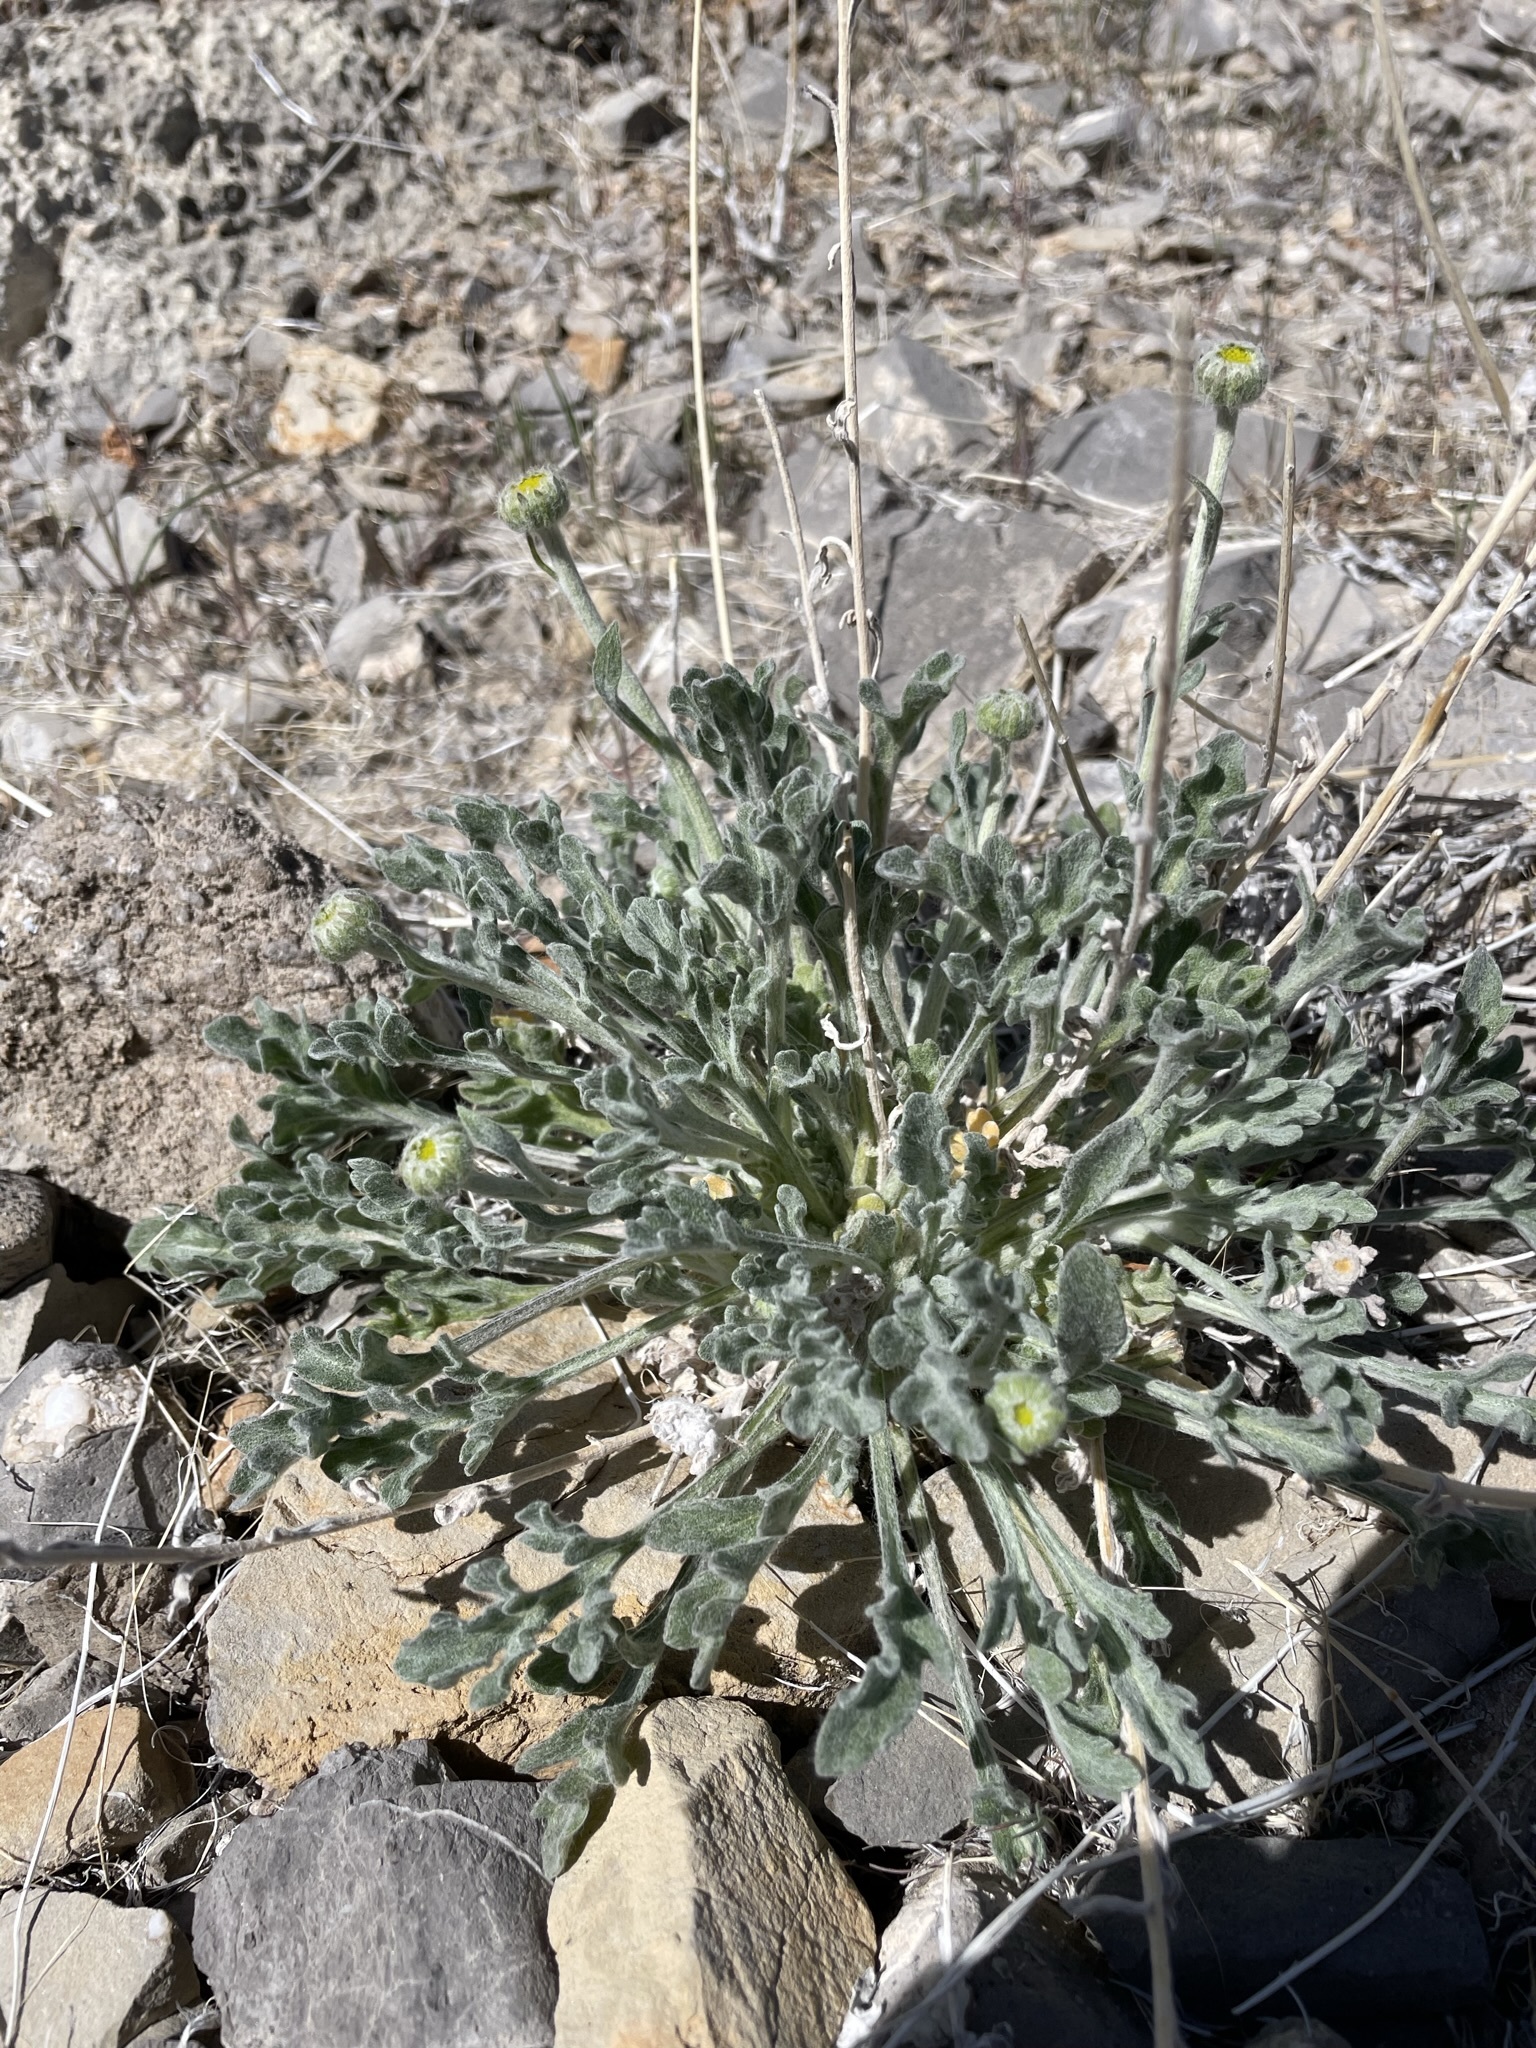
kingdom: Plantae
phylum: Tracheophyta
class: Magnoliopsida
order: Asterales
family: Asteraceae
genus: Baileya
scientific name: Baileya multiradiata
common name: Desert-marigold
